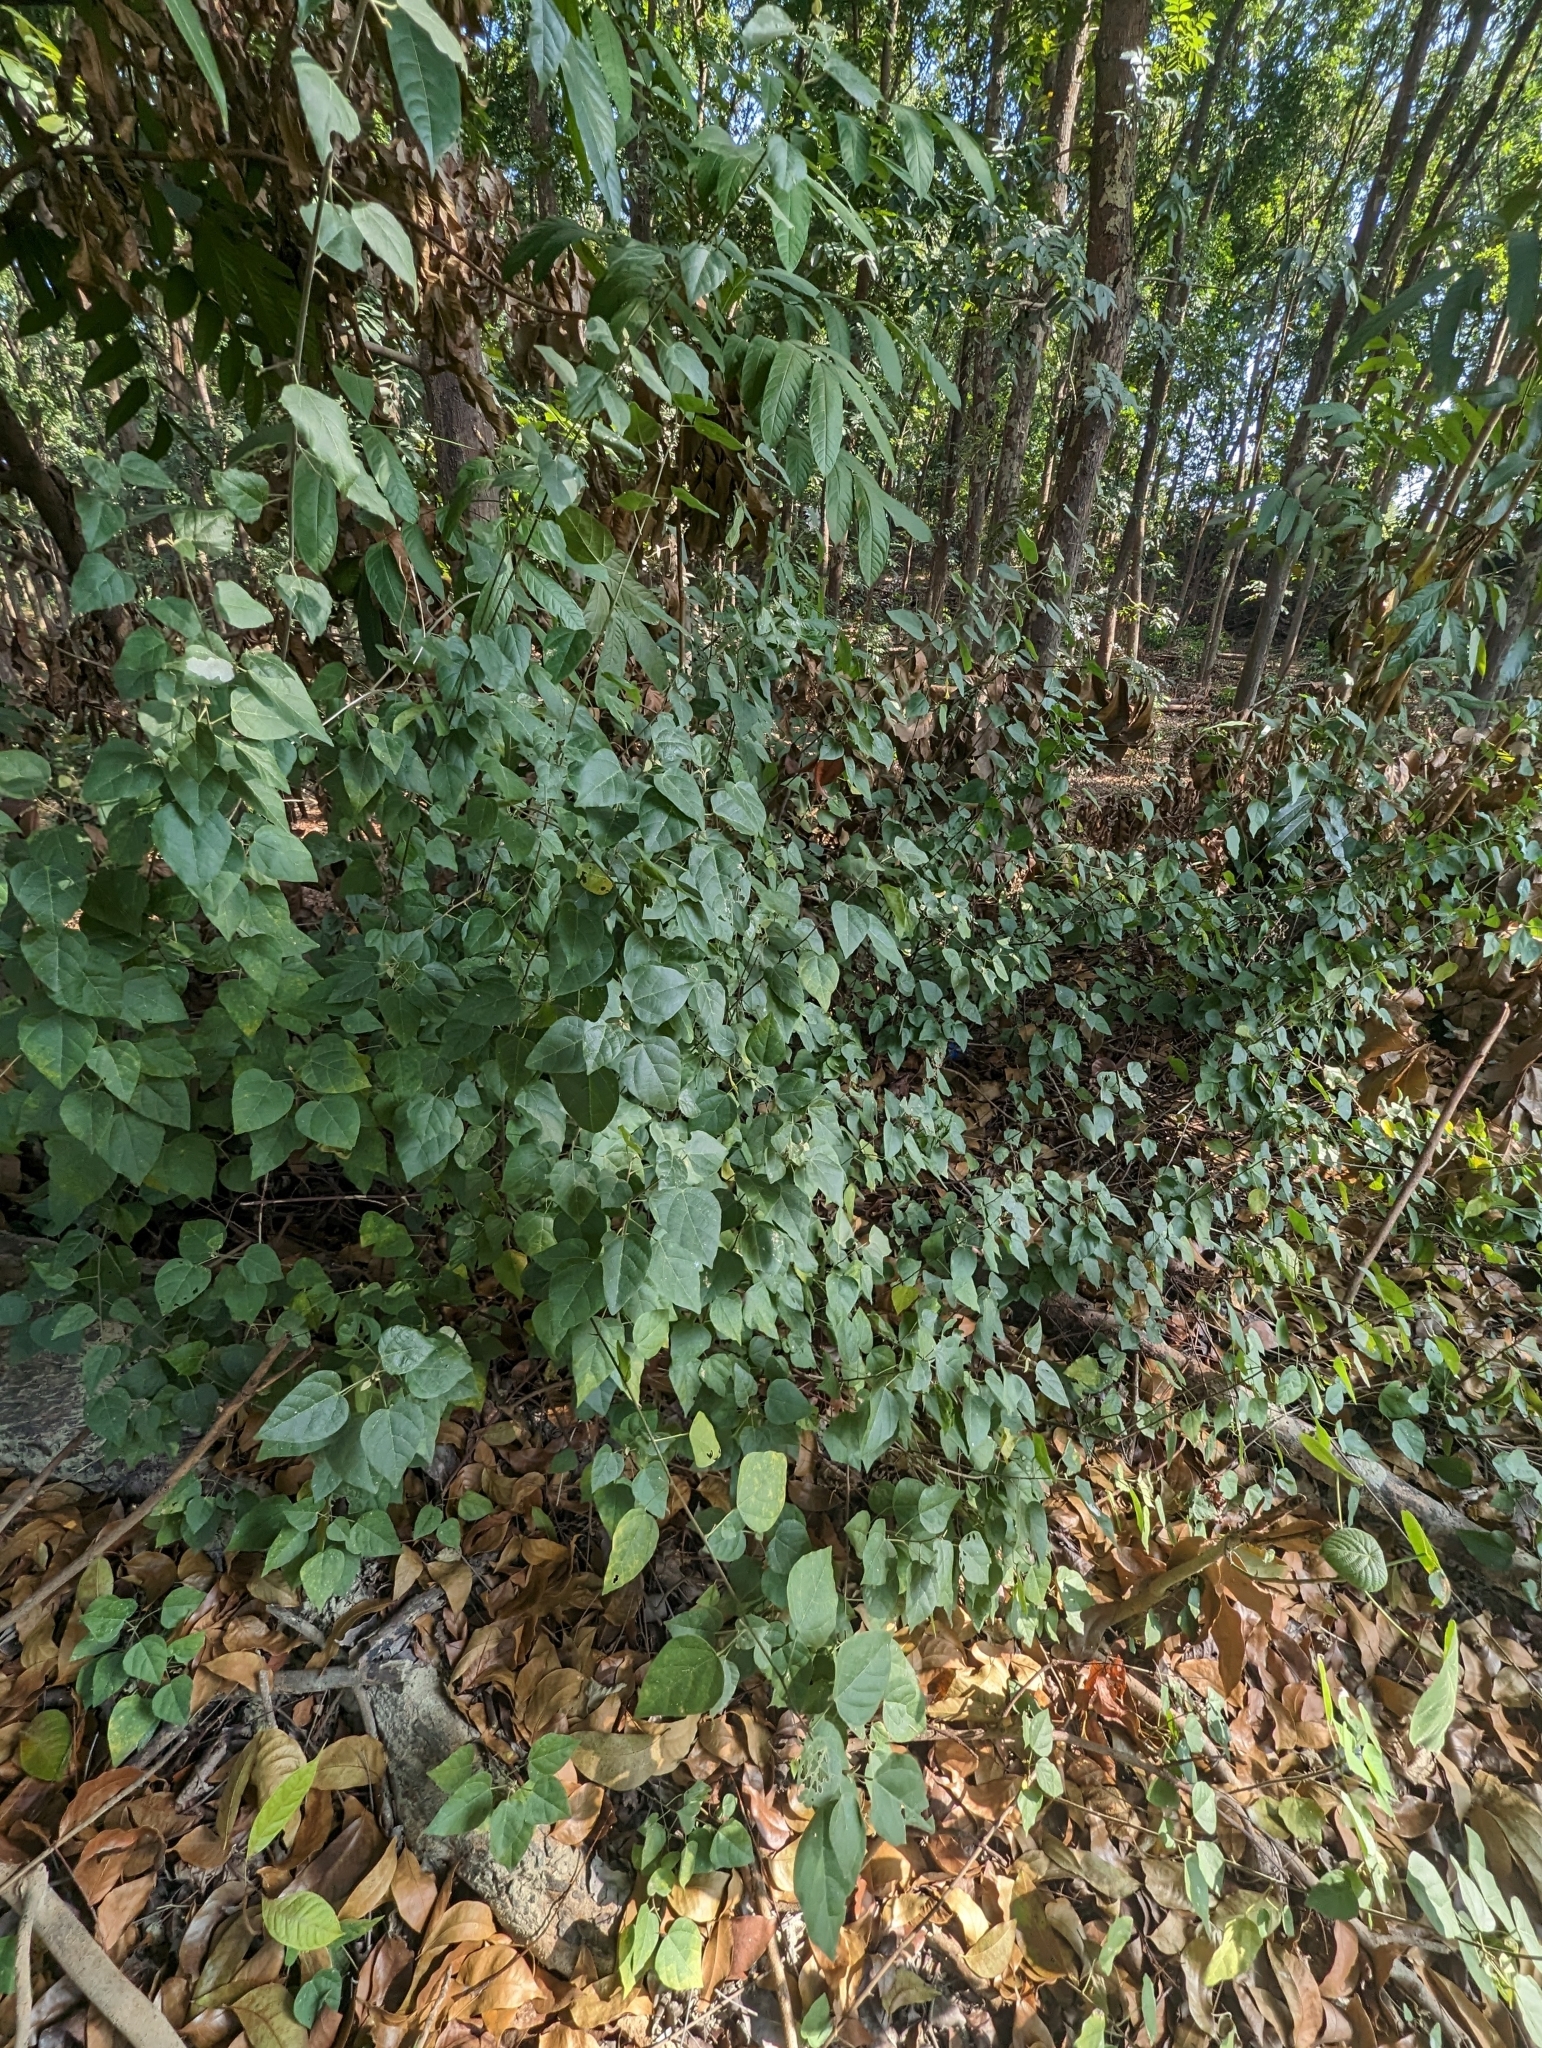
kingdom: Plantae
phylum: Tracheophyta
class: Magnoliopsida
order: Malpighiales
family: Euphorbiaceae
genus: Mallotus
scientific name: Mallotus repandus
